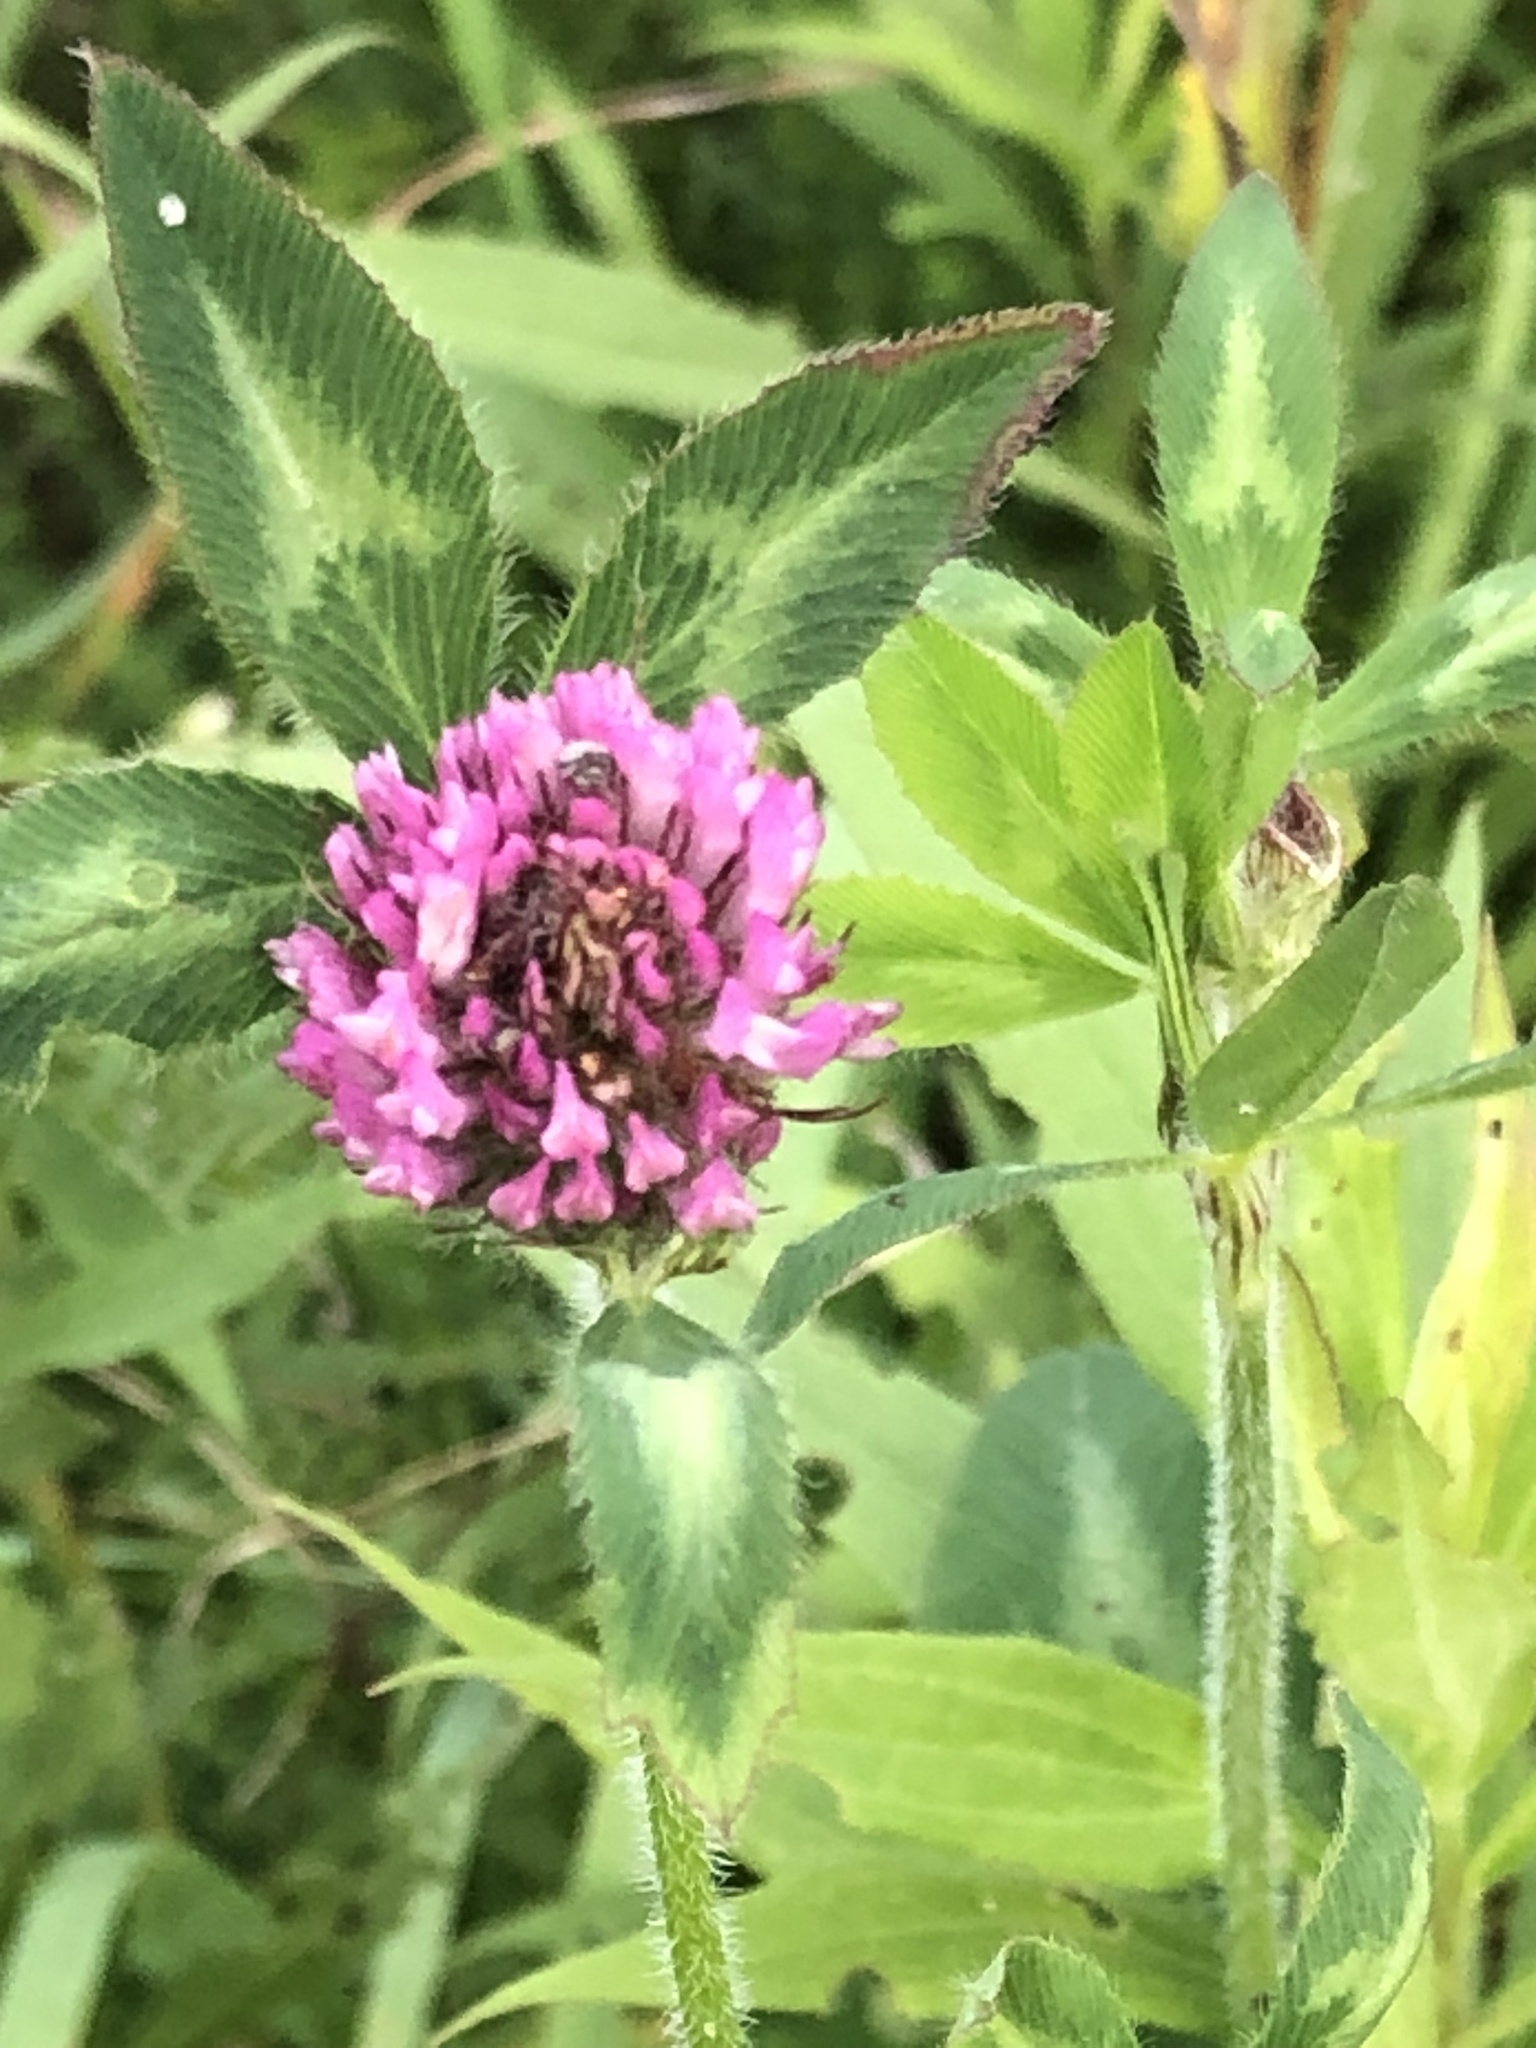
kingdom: Plantae
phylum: Tracheophyta
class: Magnoliopsida
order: Fabales
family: Fabaceae
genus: Trifolium
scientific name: Trifolium pratense
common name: Red clover
